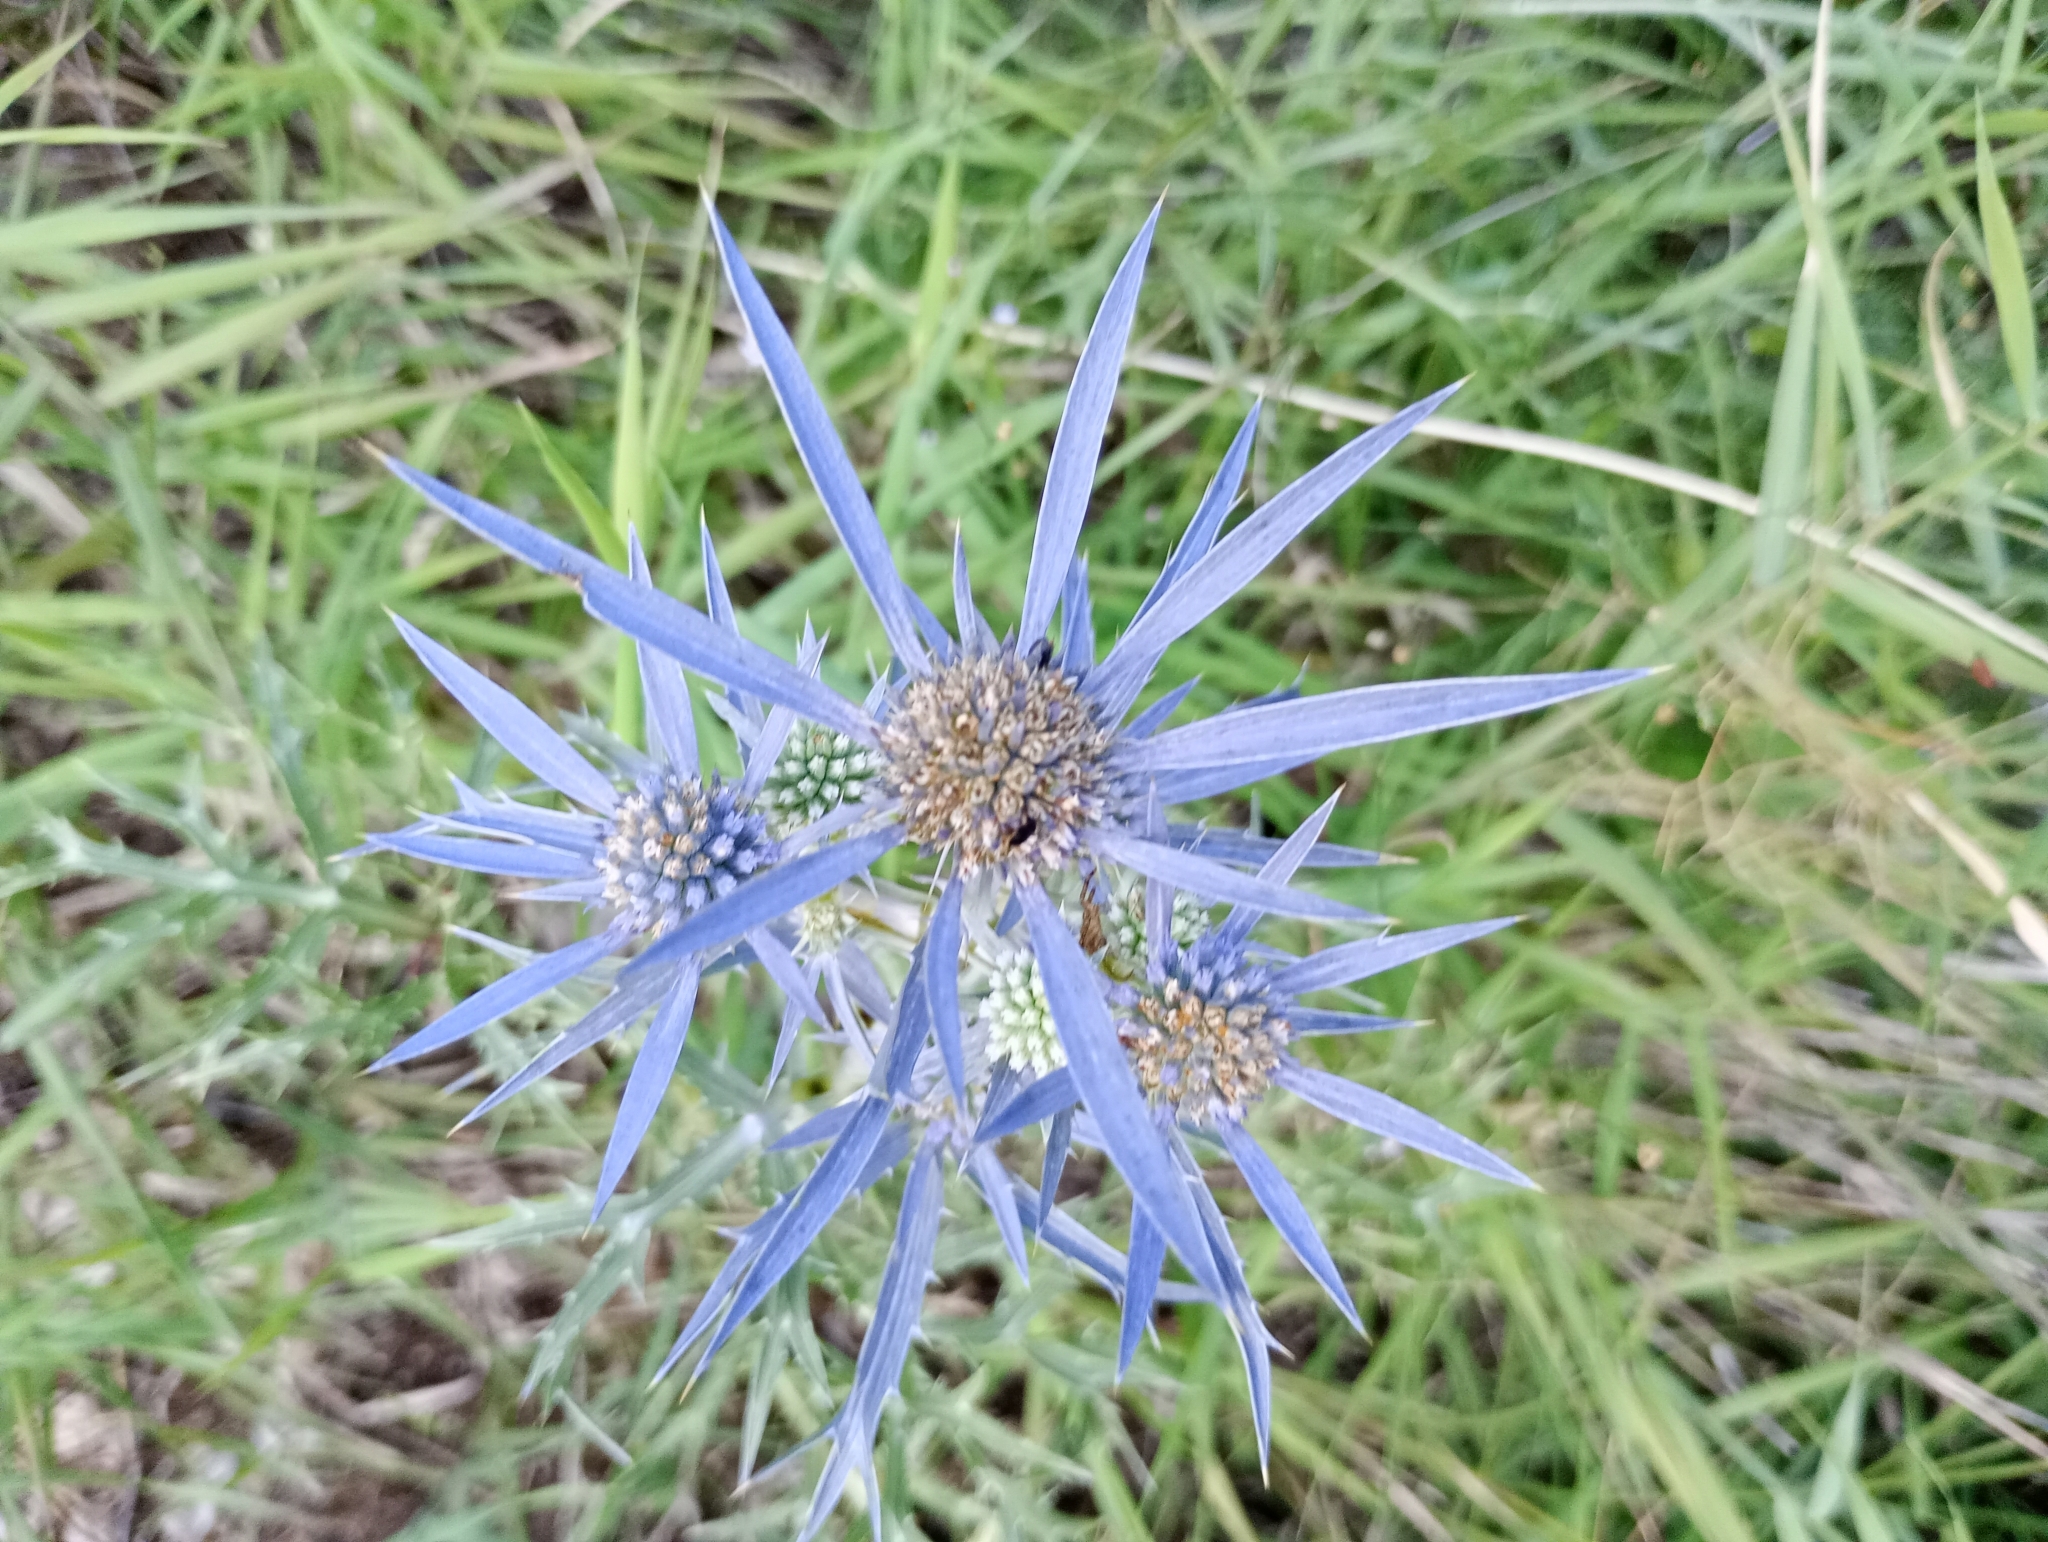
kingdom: Plantae
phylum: Tracheophyta
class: Magnoliopsida
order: Apiales
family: Apiaceae
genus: Eryngium
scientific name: Eryngium amethystinum
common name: Amethyst eryngo
